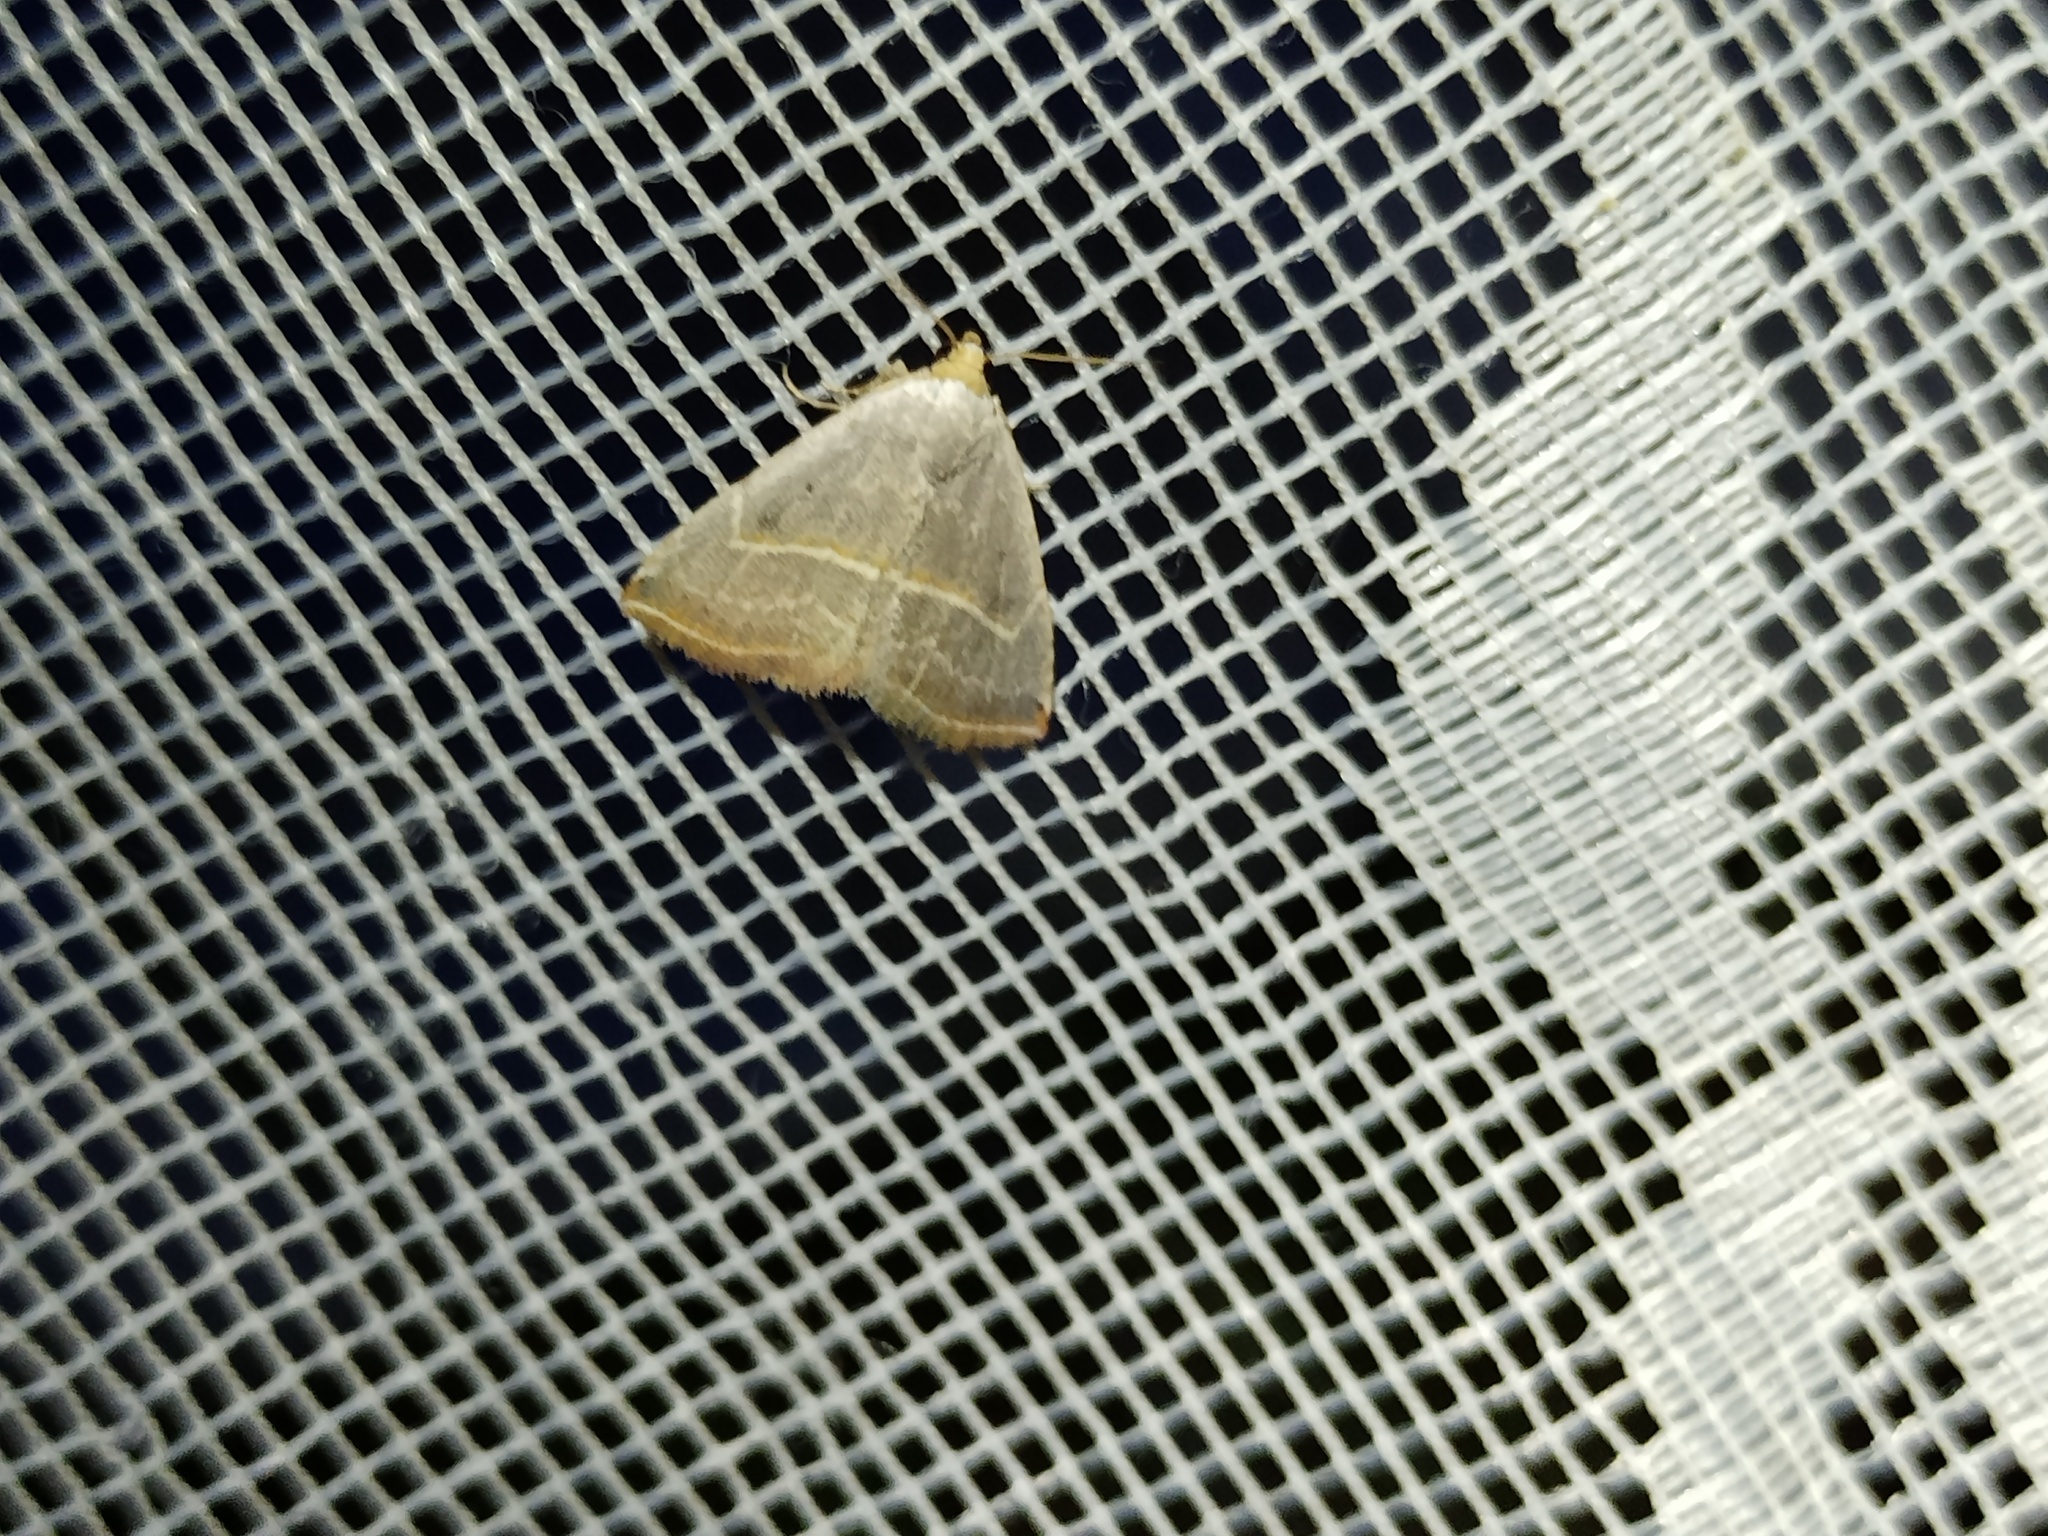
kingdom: Animalia
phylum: Arthropoda
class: Insecta
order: Lepidoptera
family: Noctuidae
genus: Eublemma
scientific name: Eublemma polygramma
